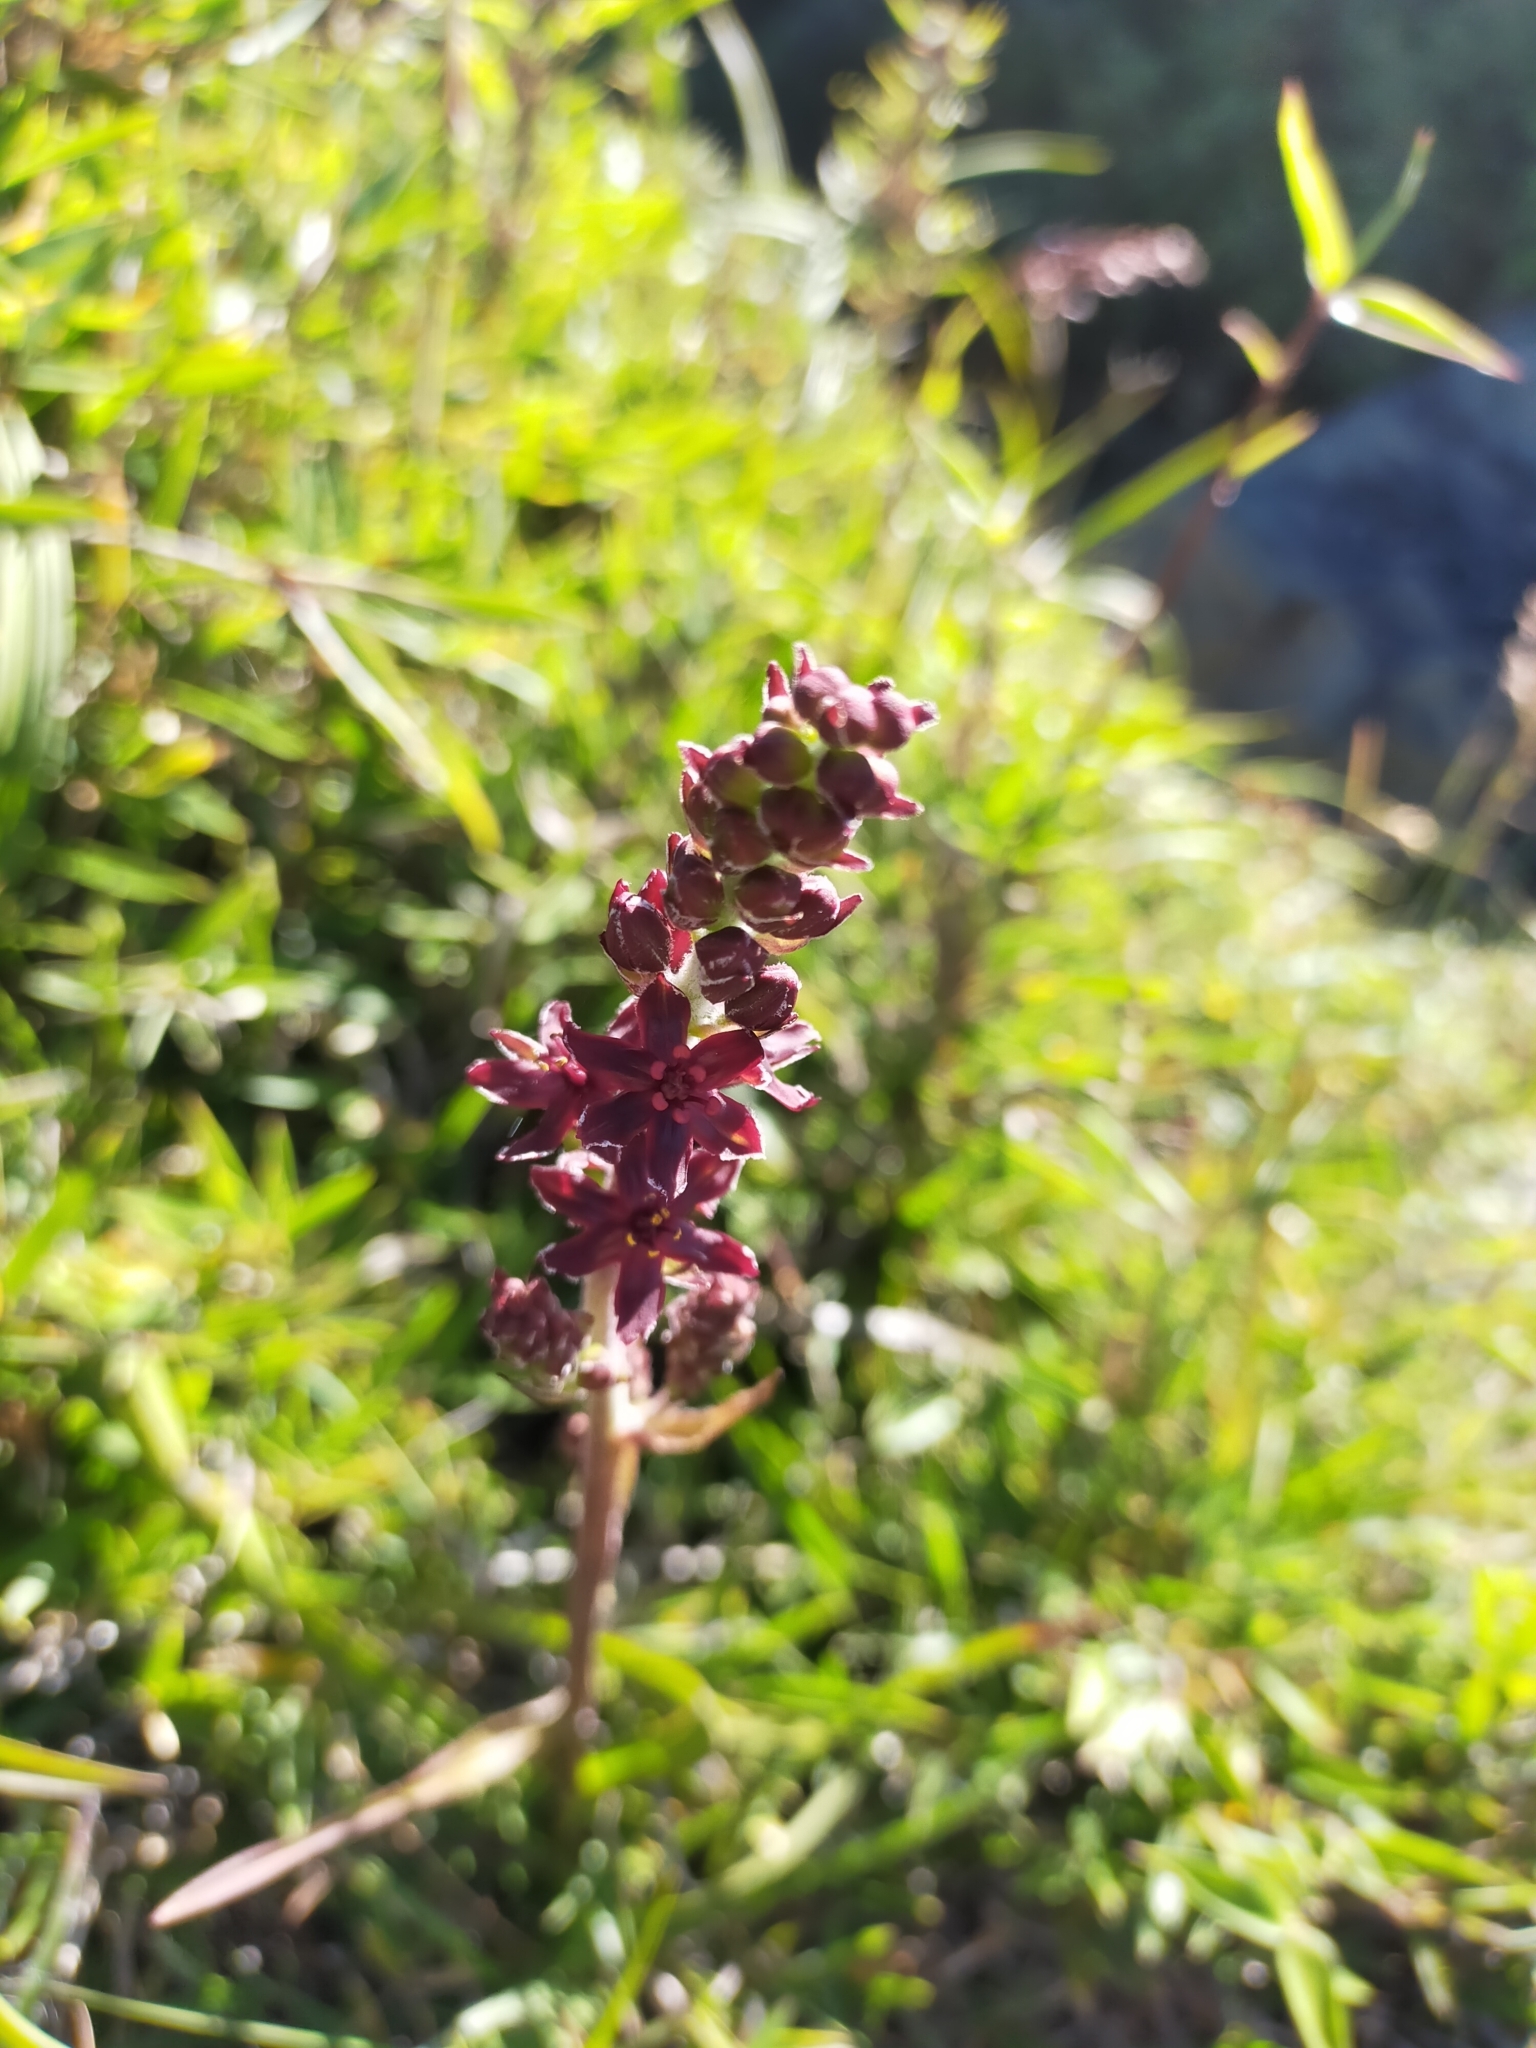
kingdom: Plantae
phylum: Tracheophyta
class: Liliopsida
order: Liliales
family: Melanthiaceae
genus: Veratrum
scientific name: Veratrum formosanum
